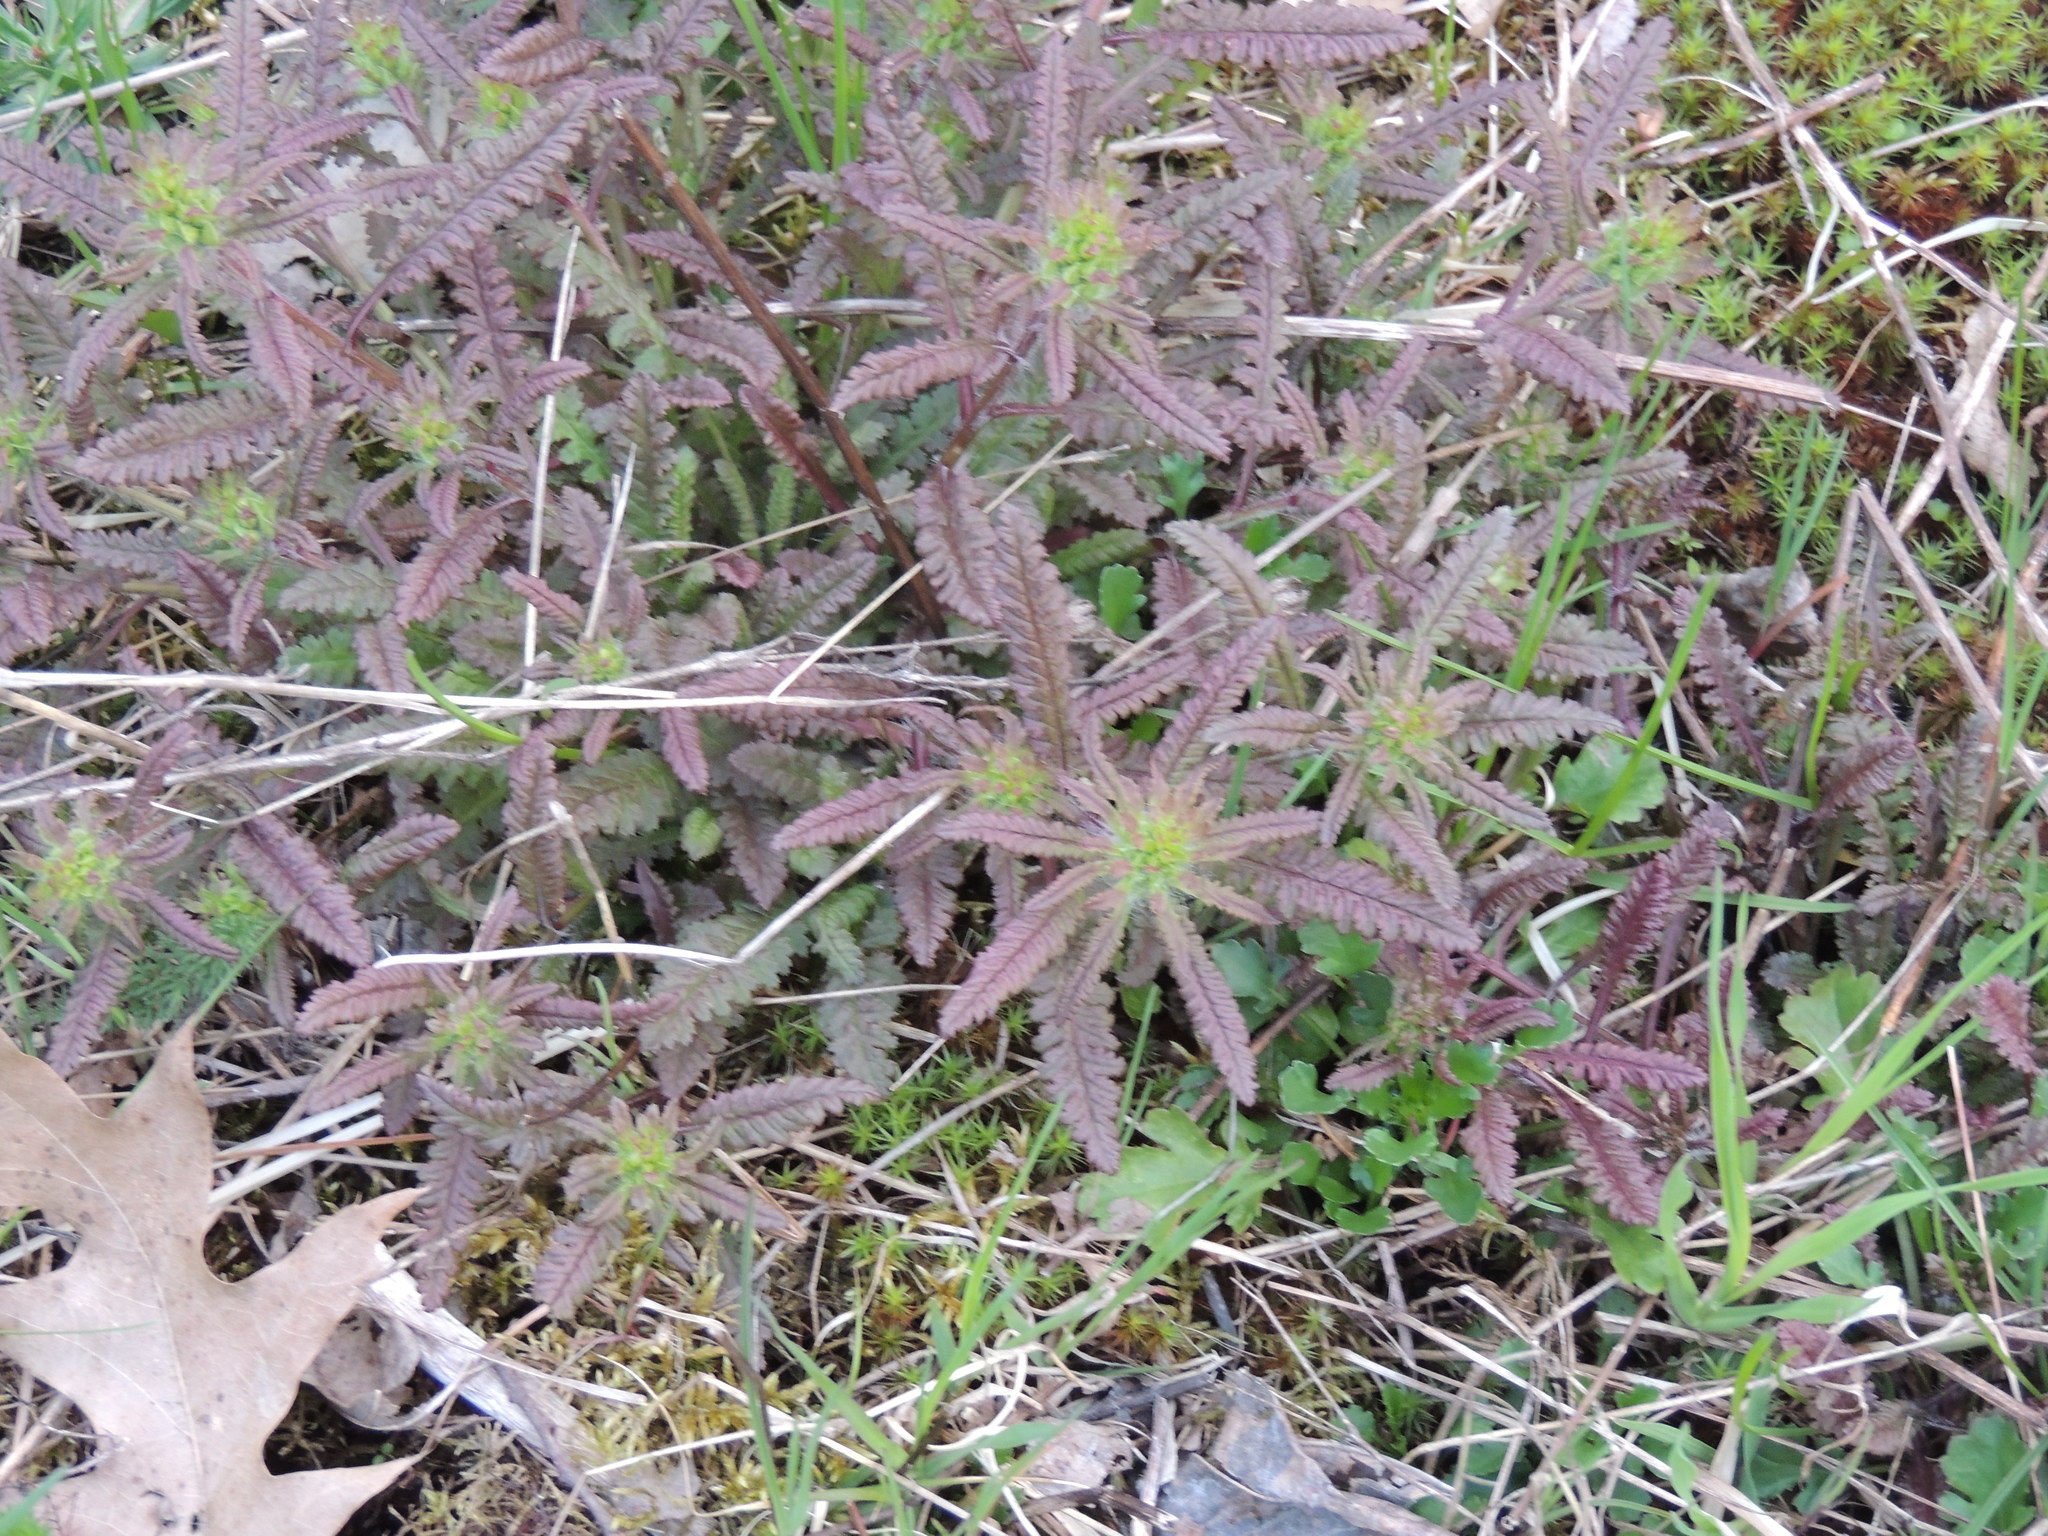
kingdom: Plantae
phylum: Tracheophyta
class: Magnoliopsida
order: Lamiales
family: Orobanchaceae
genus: Pedicularis
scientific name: Pedicularis canadensis
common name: Early lousewort
